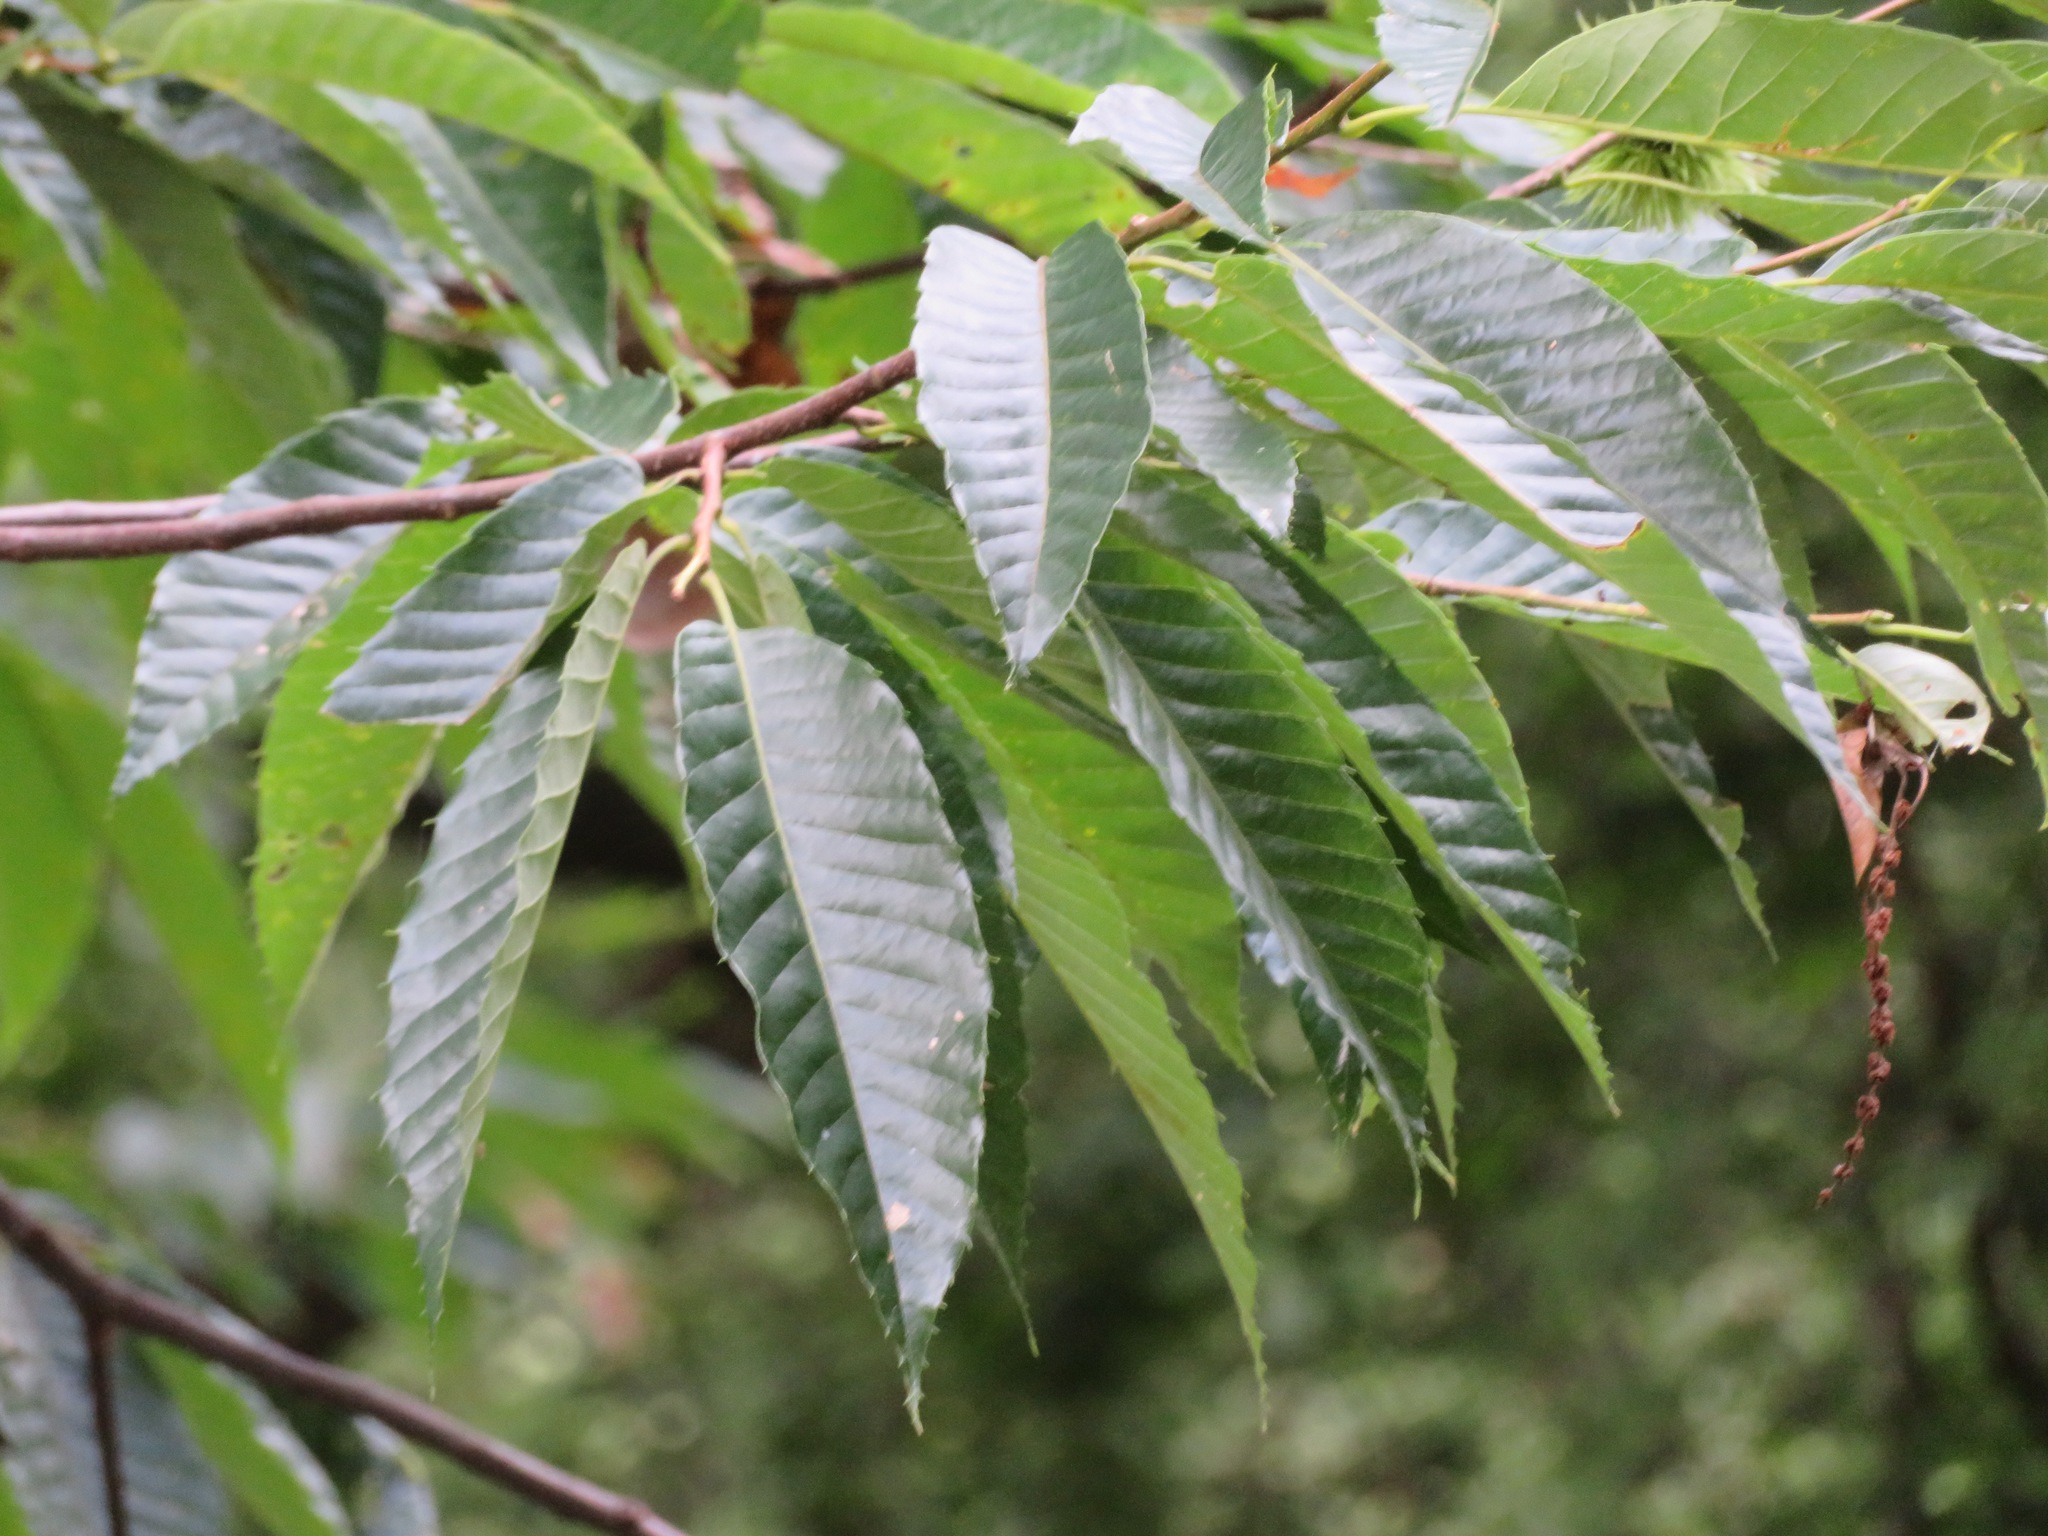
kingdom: Plantae
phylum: Tracheophyta
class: Magnoliopsida
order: Fagales
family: Fagaceae
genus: Castanea
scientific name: Castanea crenata
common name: Japanese chestnut
